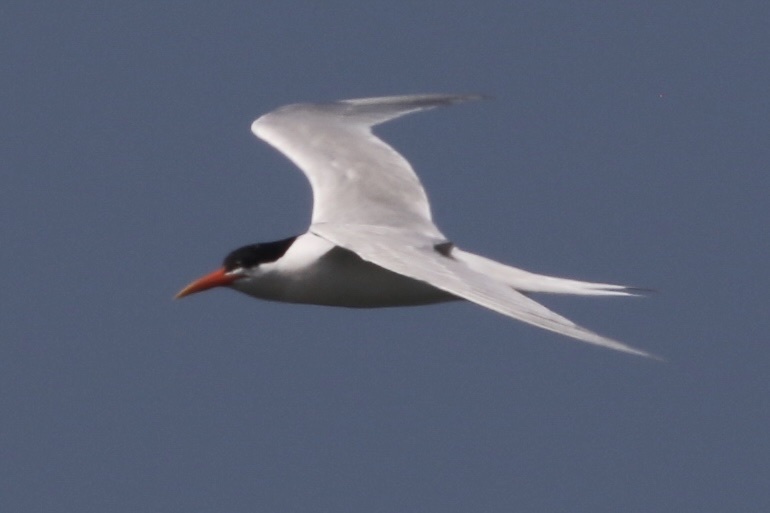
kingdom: Animalia
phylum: Chordata
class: Aves
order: Charadriiformes
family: Laridae
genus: Thalasseus
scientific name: Thalasseus elegans
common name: Elegant tern
